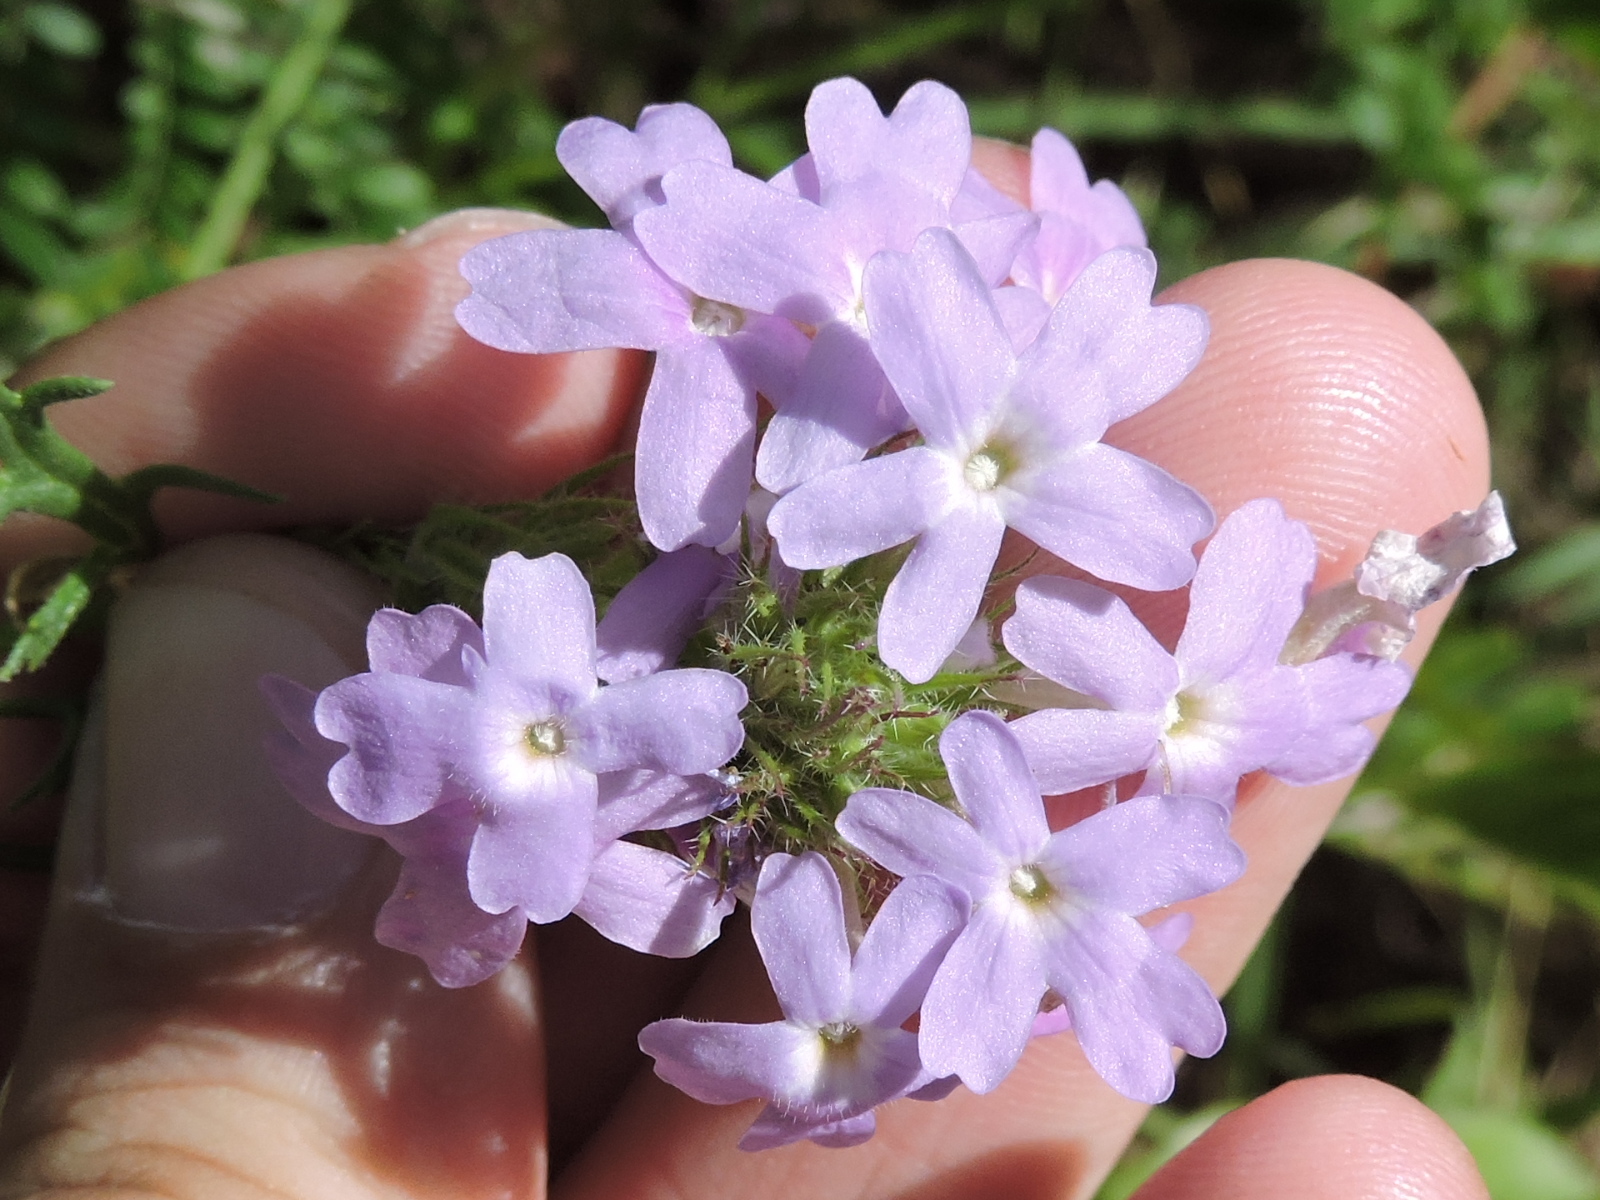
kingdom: Plantae
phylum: Tracheophyta
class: Magnoliopsida
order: Lamiales
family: Verbenaceae
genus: Verbena
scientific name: Verbena bipinnatifida
